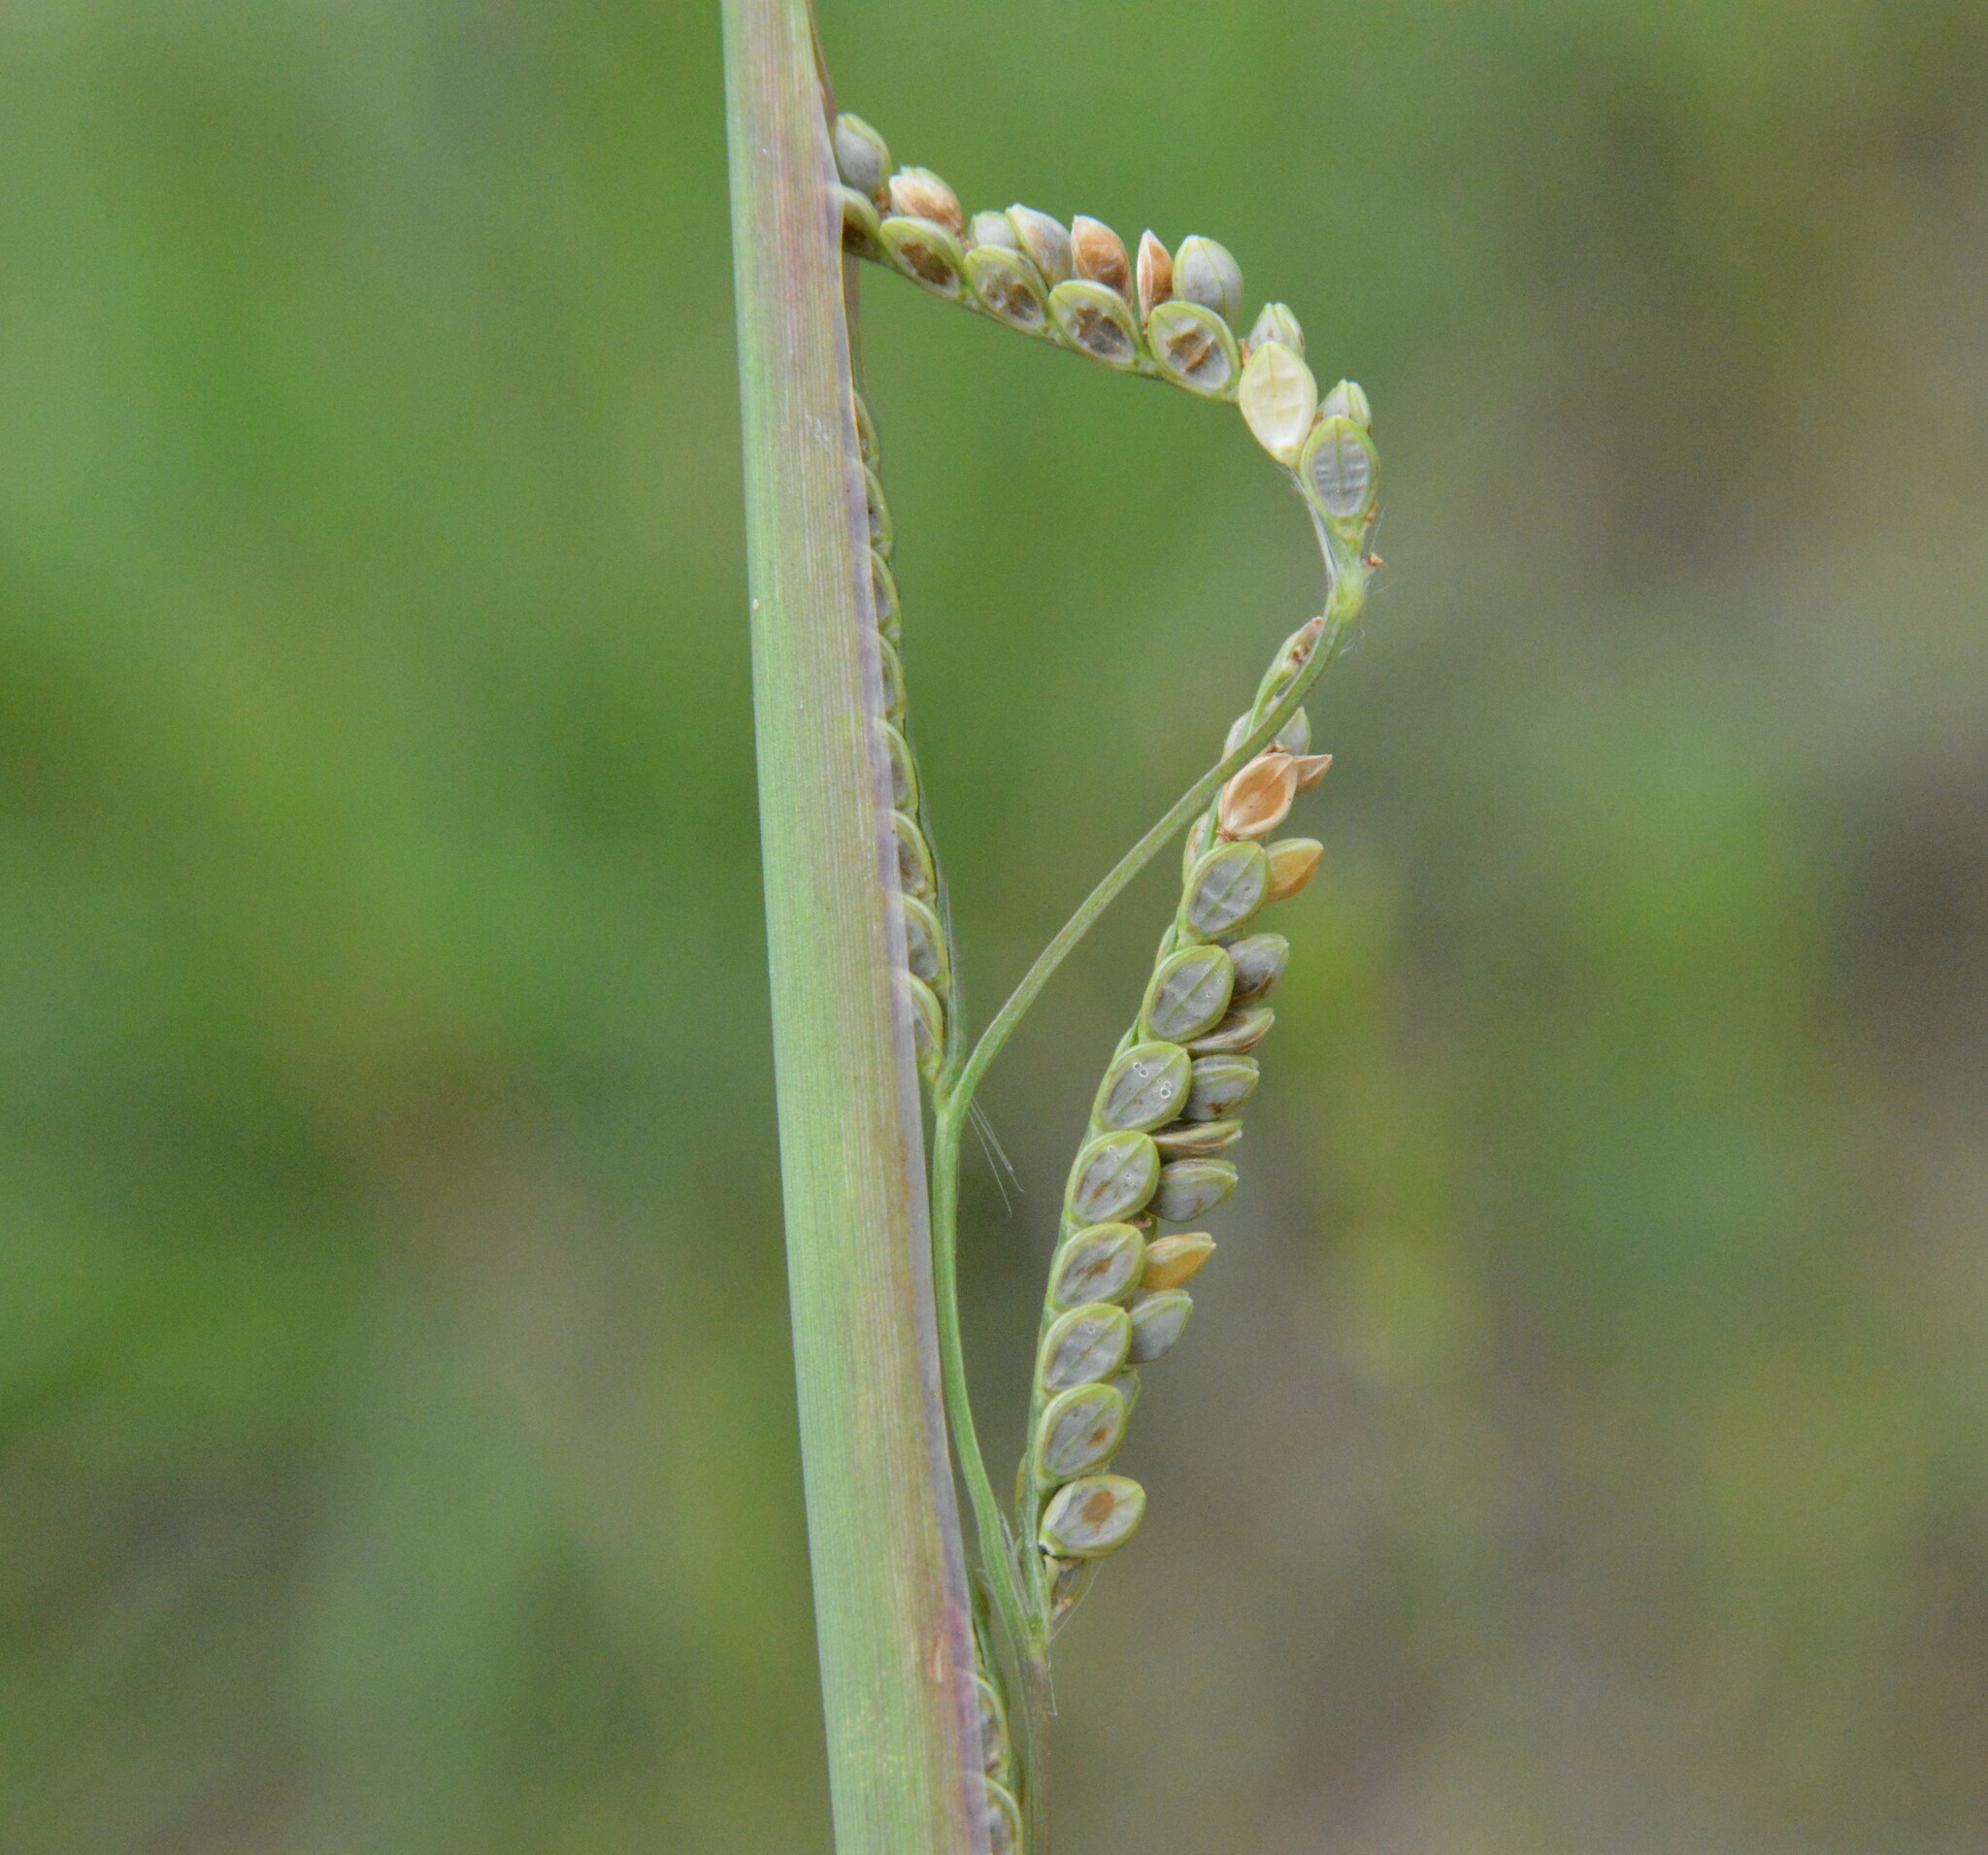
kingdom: Plantae
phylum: Tracheophyta
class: Liliopsida
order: Poales
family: Poaceae
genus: Paspalum
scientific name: Paspalum plicatulum
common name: Top paspalum
